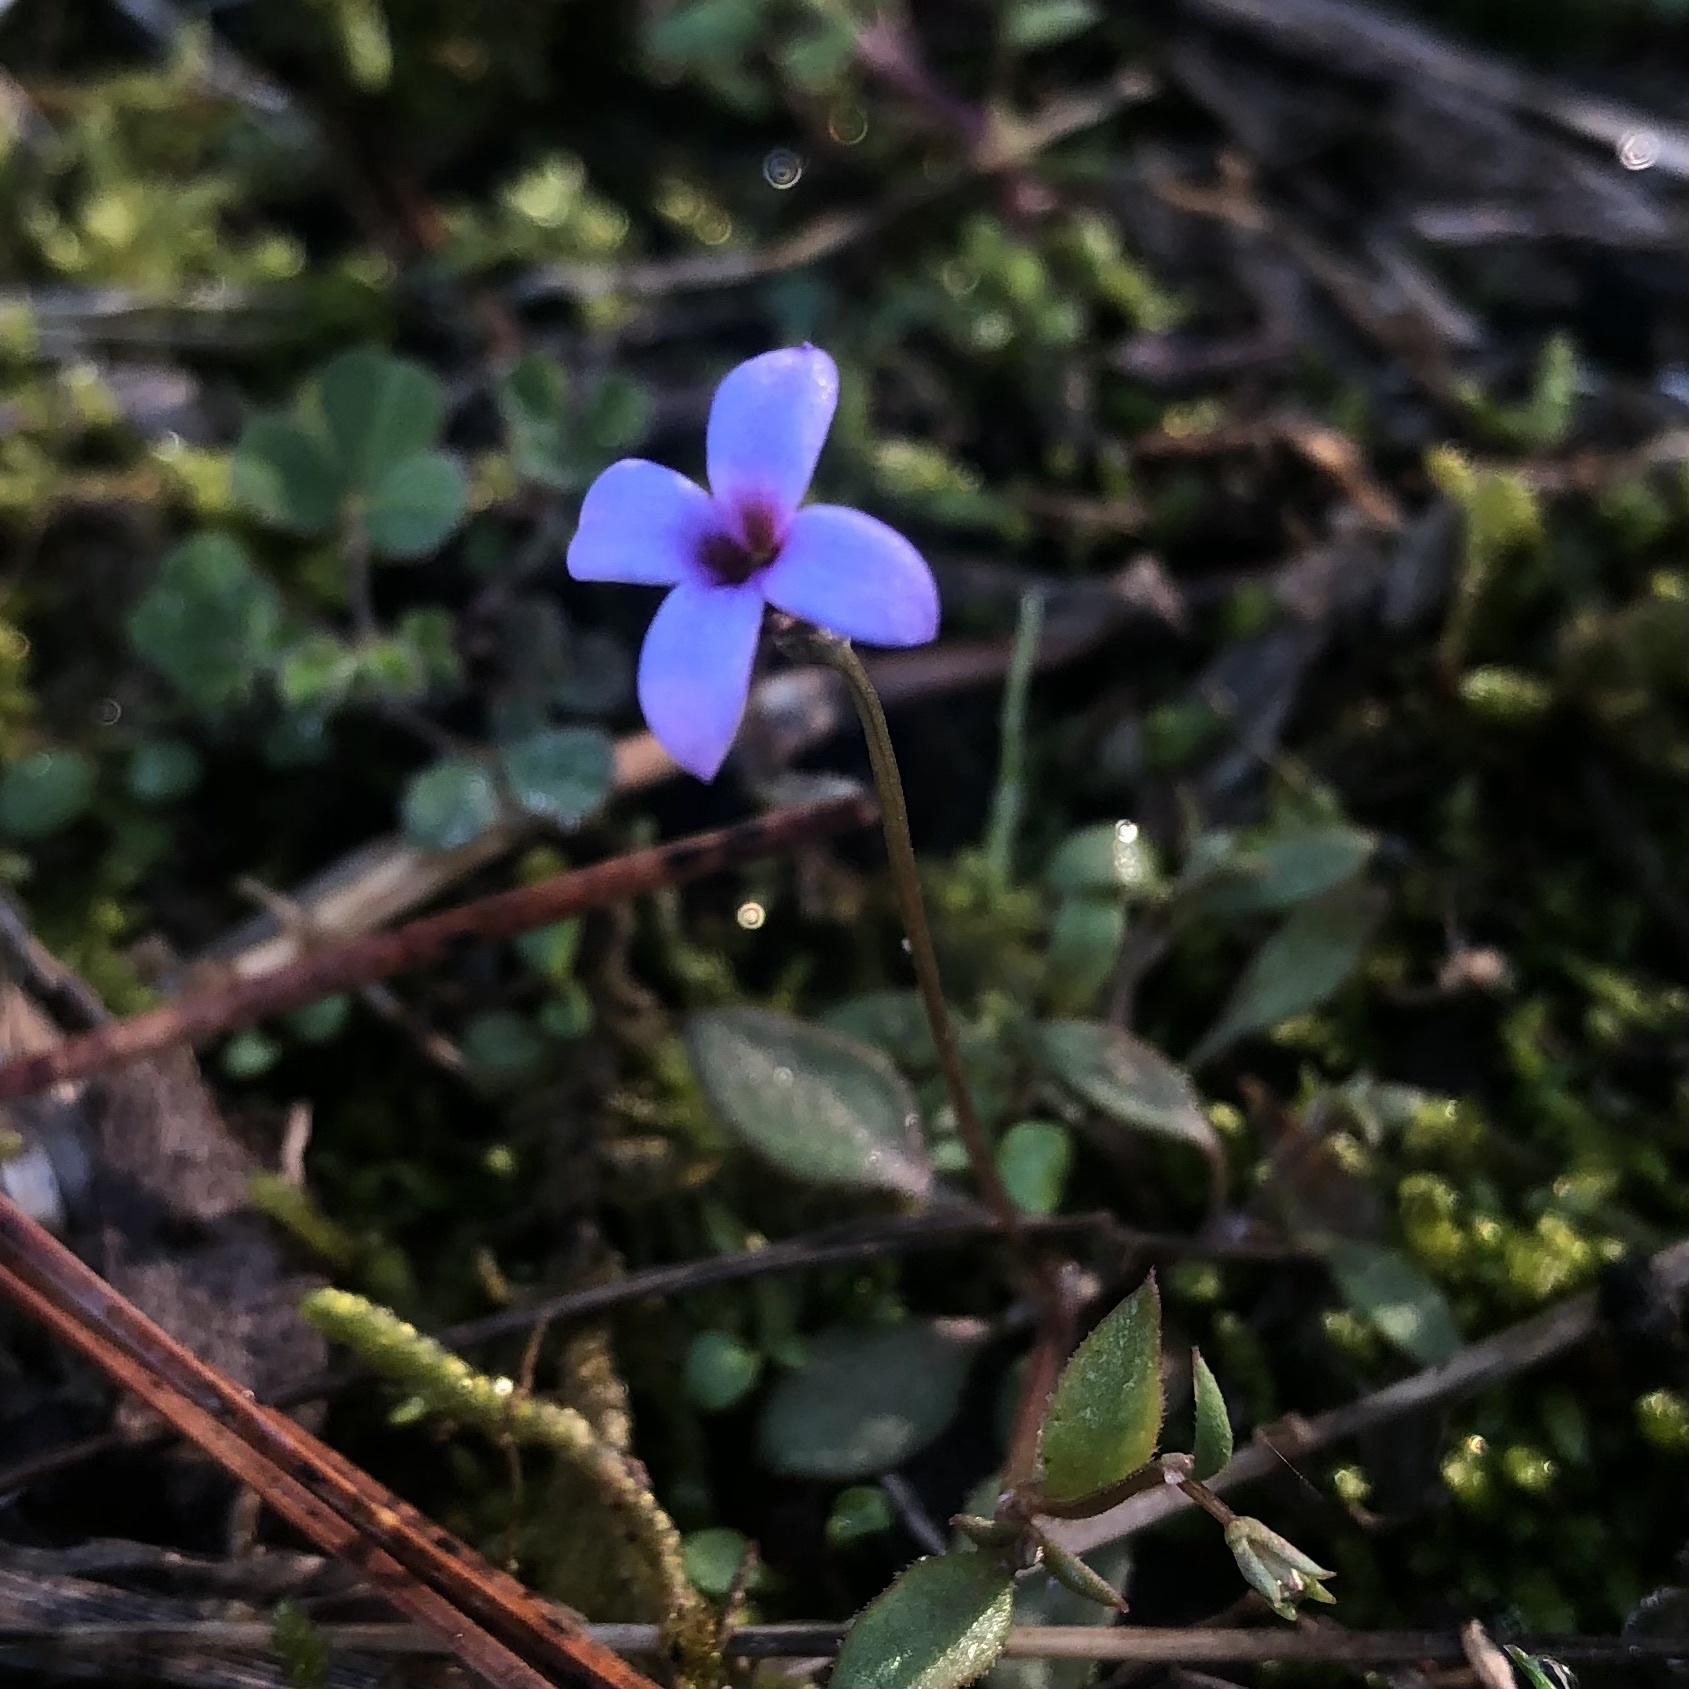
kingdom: Plantae
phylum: Tracheophyta
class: Magnoliopsida
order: Gentianales
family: Rubiaceae
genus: Houstonia
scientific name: Houstonia pusilla
